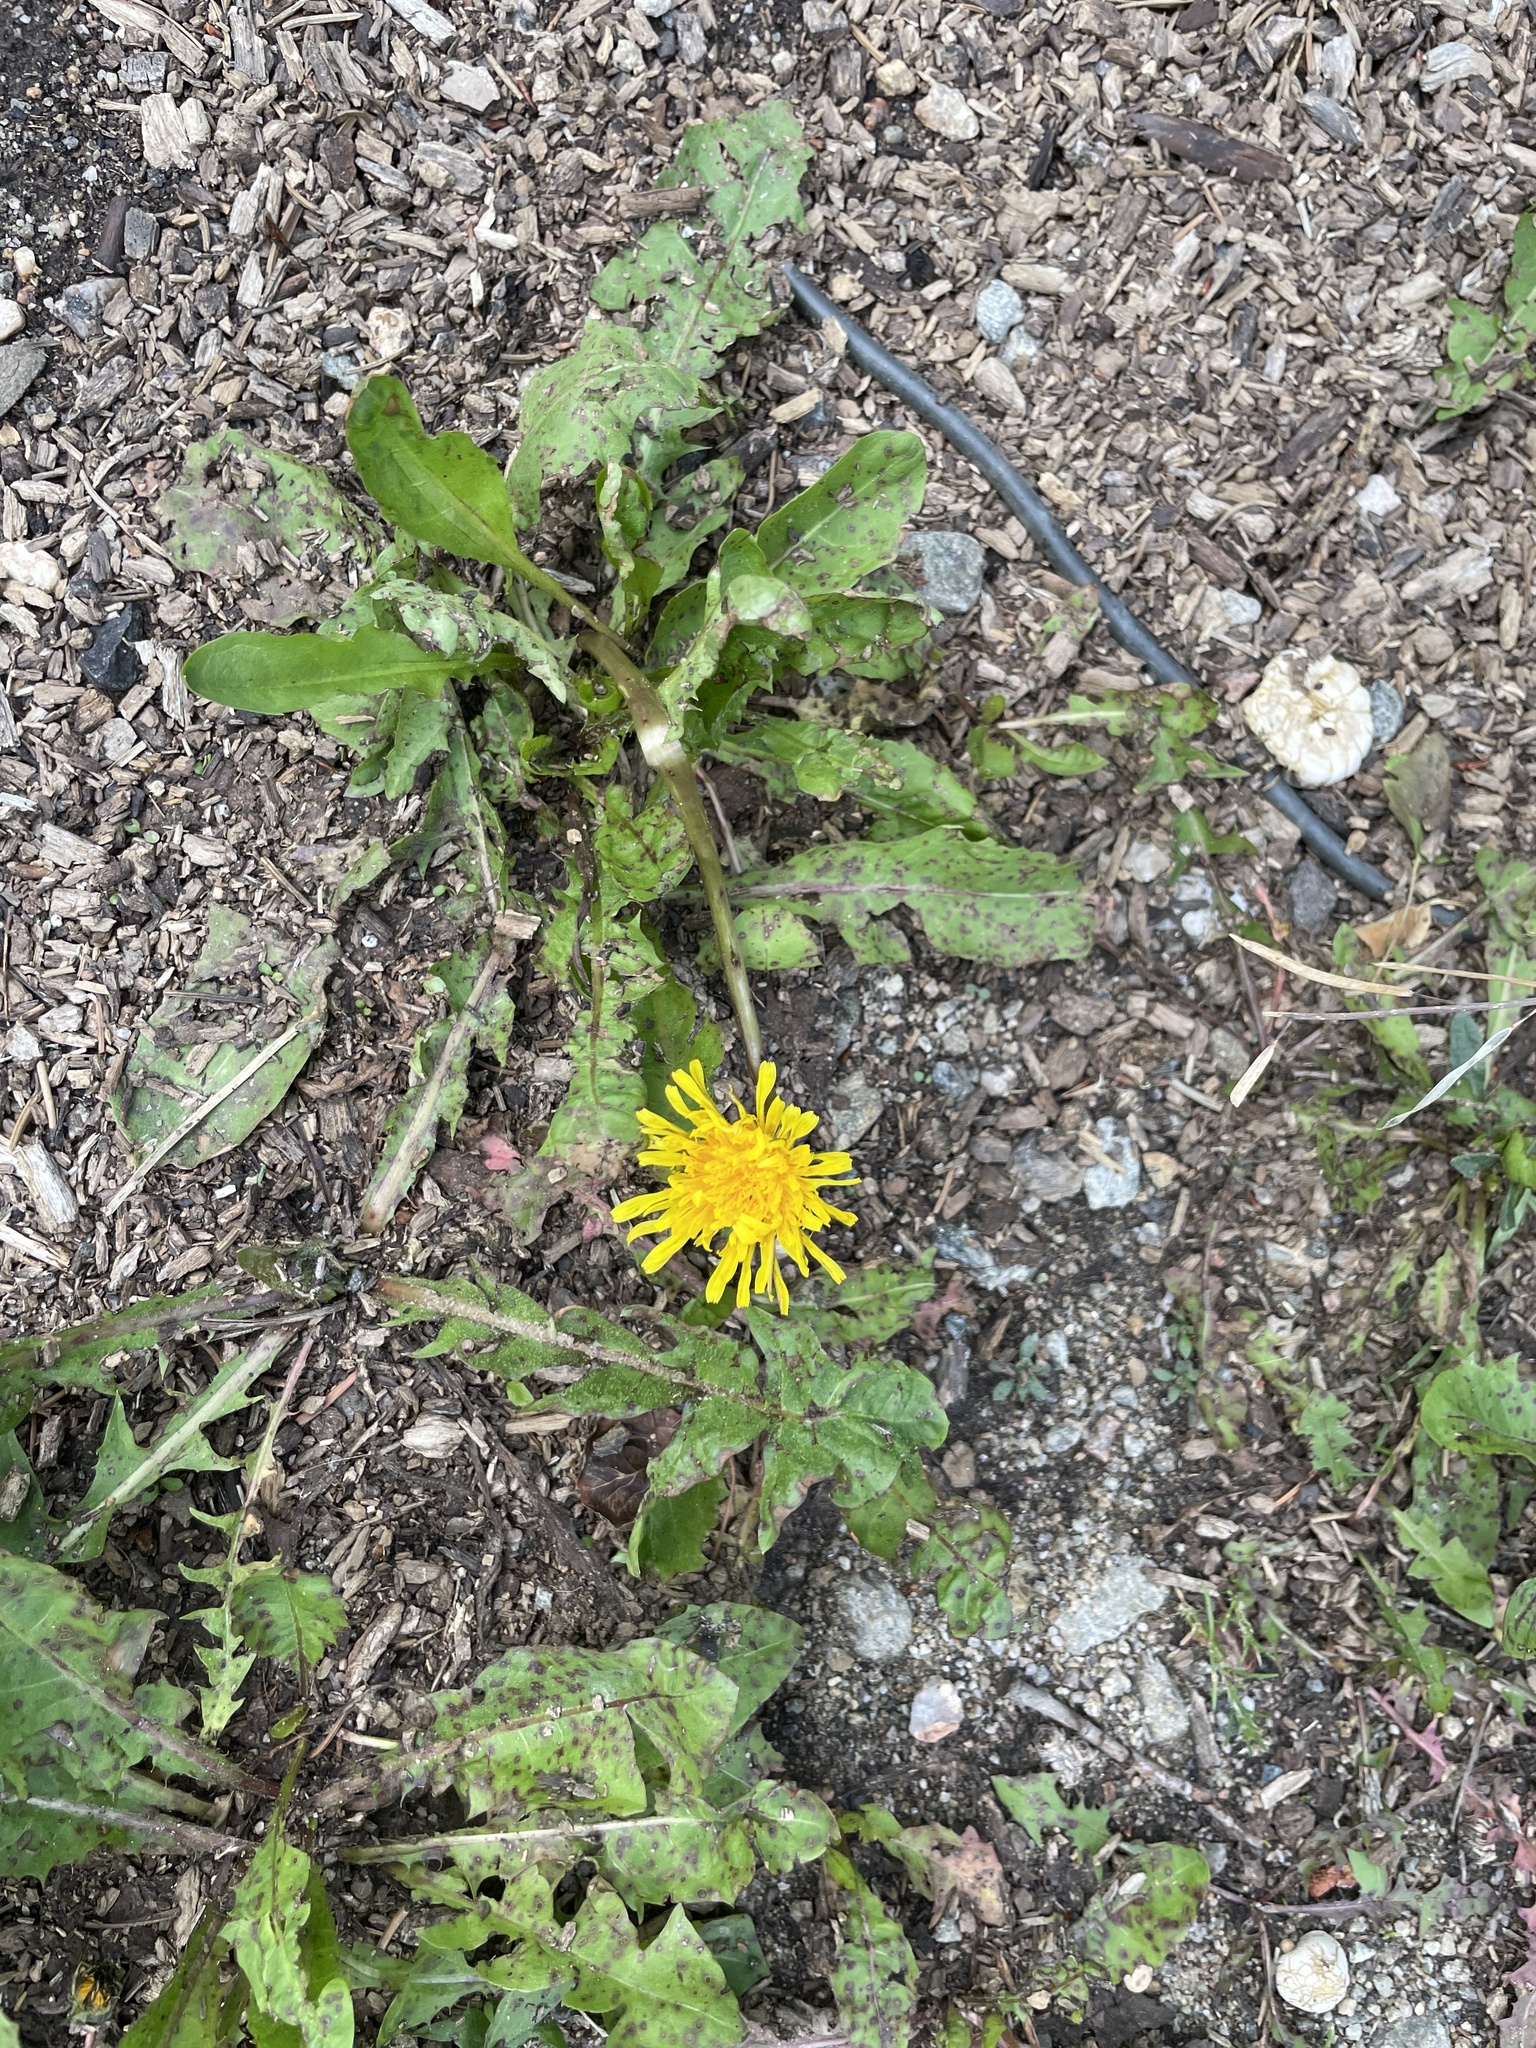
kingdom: Plantae
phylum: Tracheophyta
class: Magnoliopsida
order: Asterales
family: Asteraceae
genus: Taraxacum
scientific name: Taraxacum officinale
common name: Common dandelion
